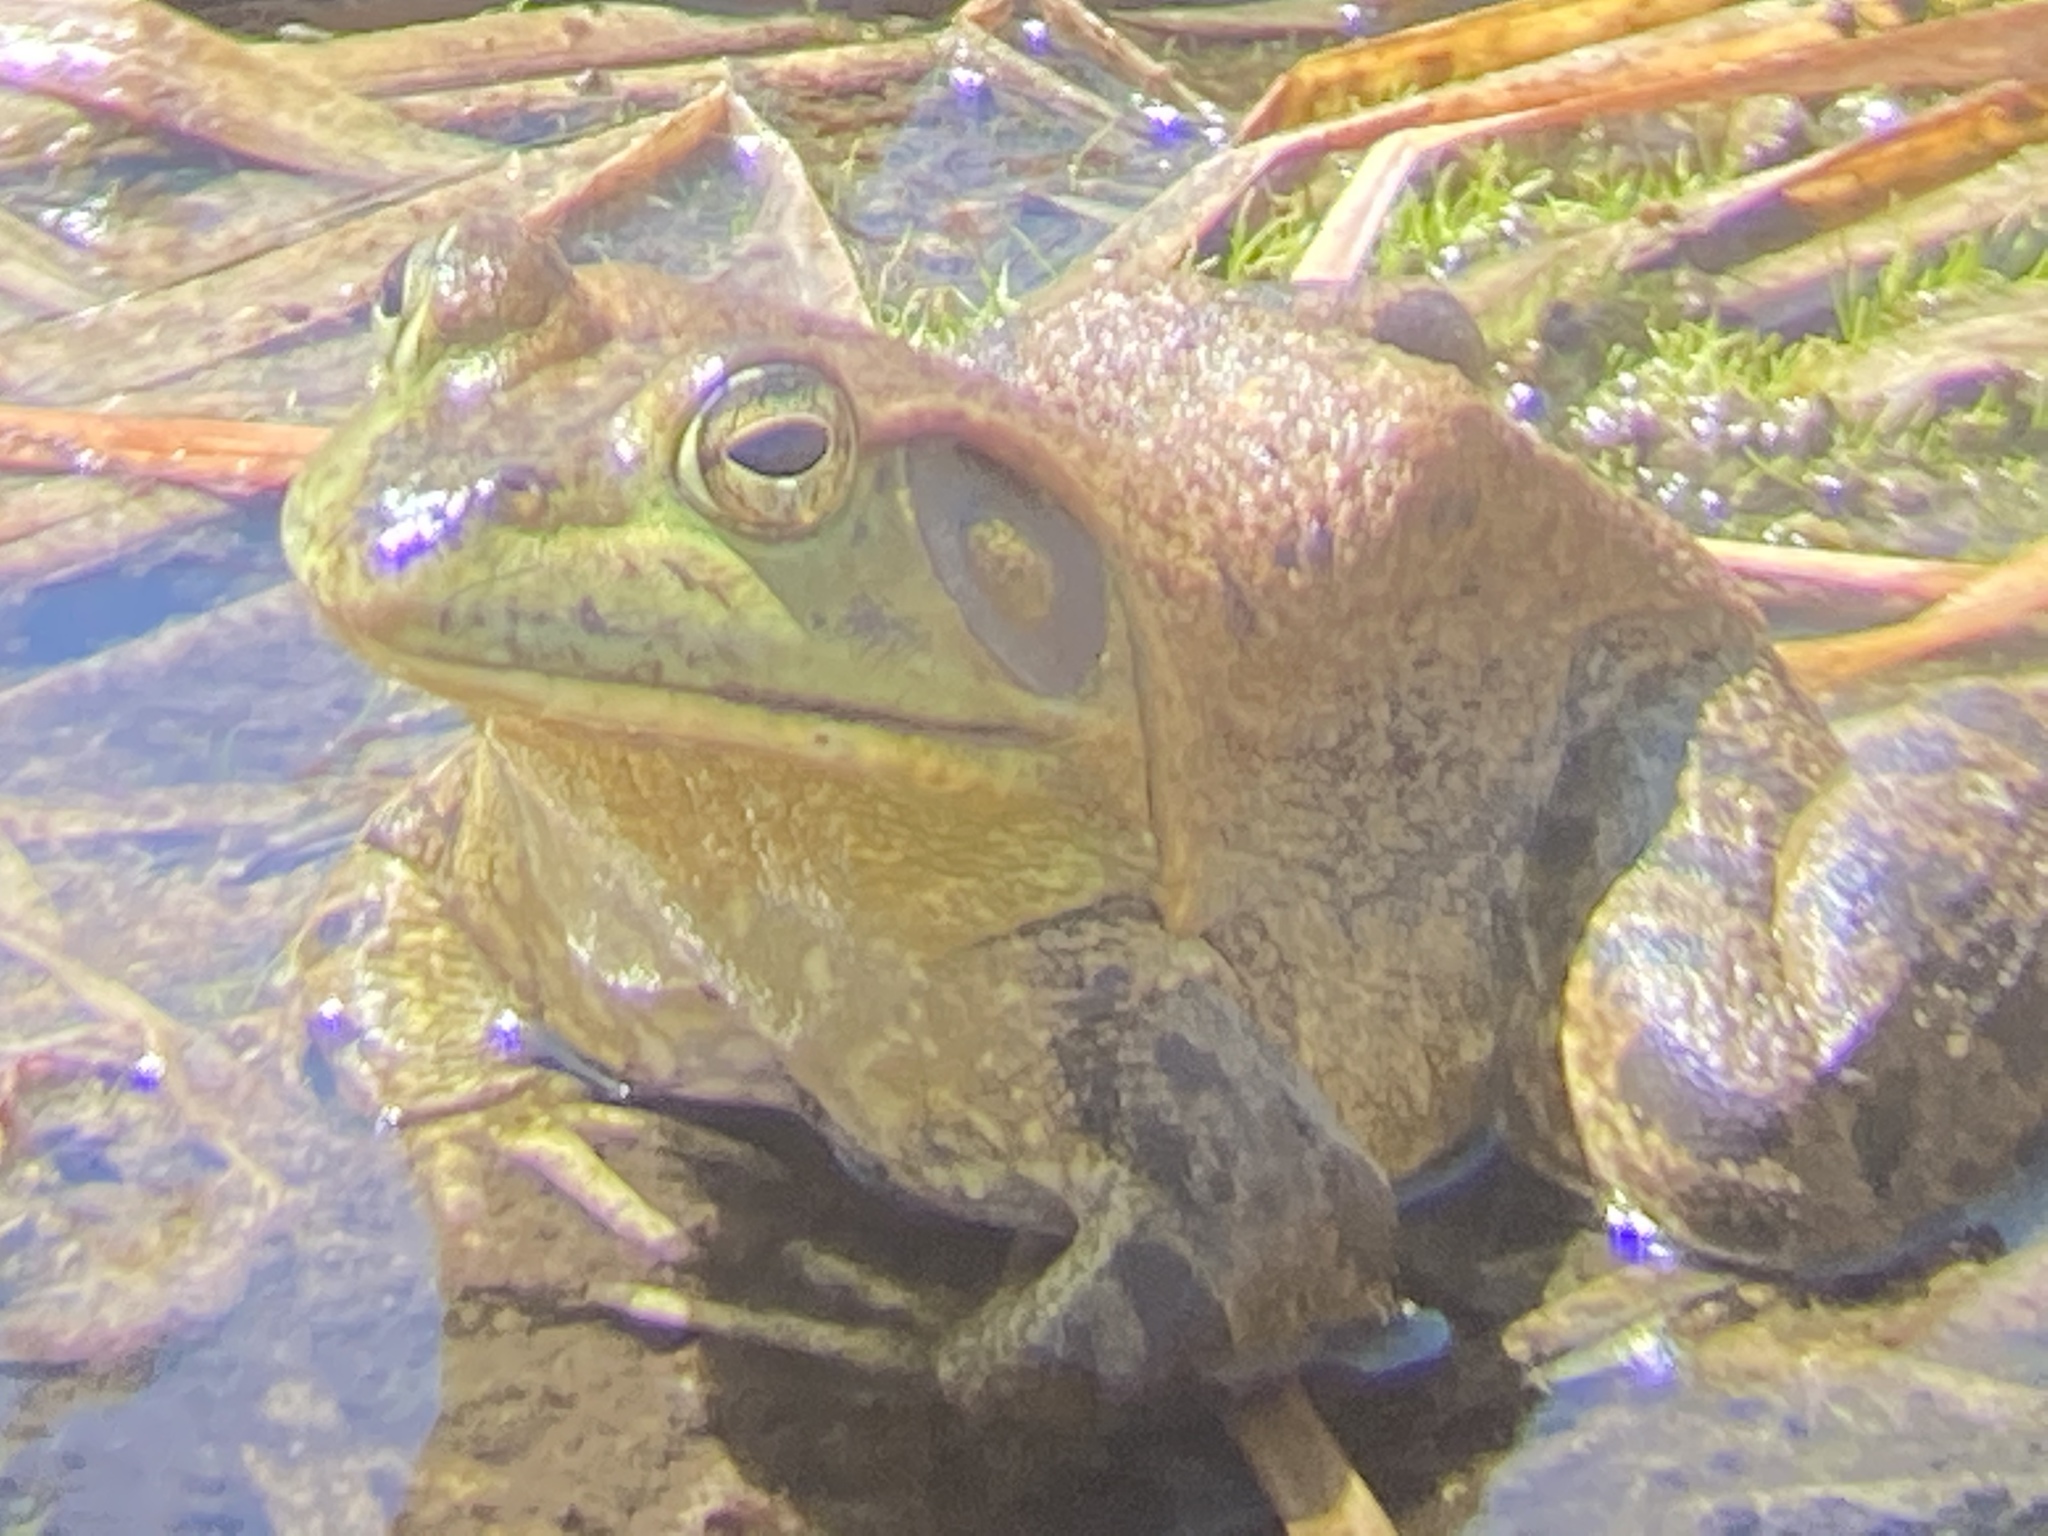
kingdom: Animalia
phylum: Chordata
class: Amphibia
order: Anura
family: Ranidae
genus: Lithobates
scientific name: Lithobates catesbeianus
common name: American bullfrog
